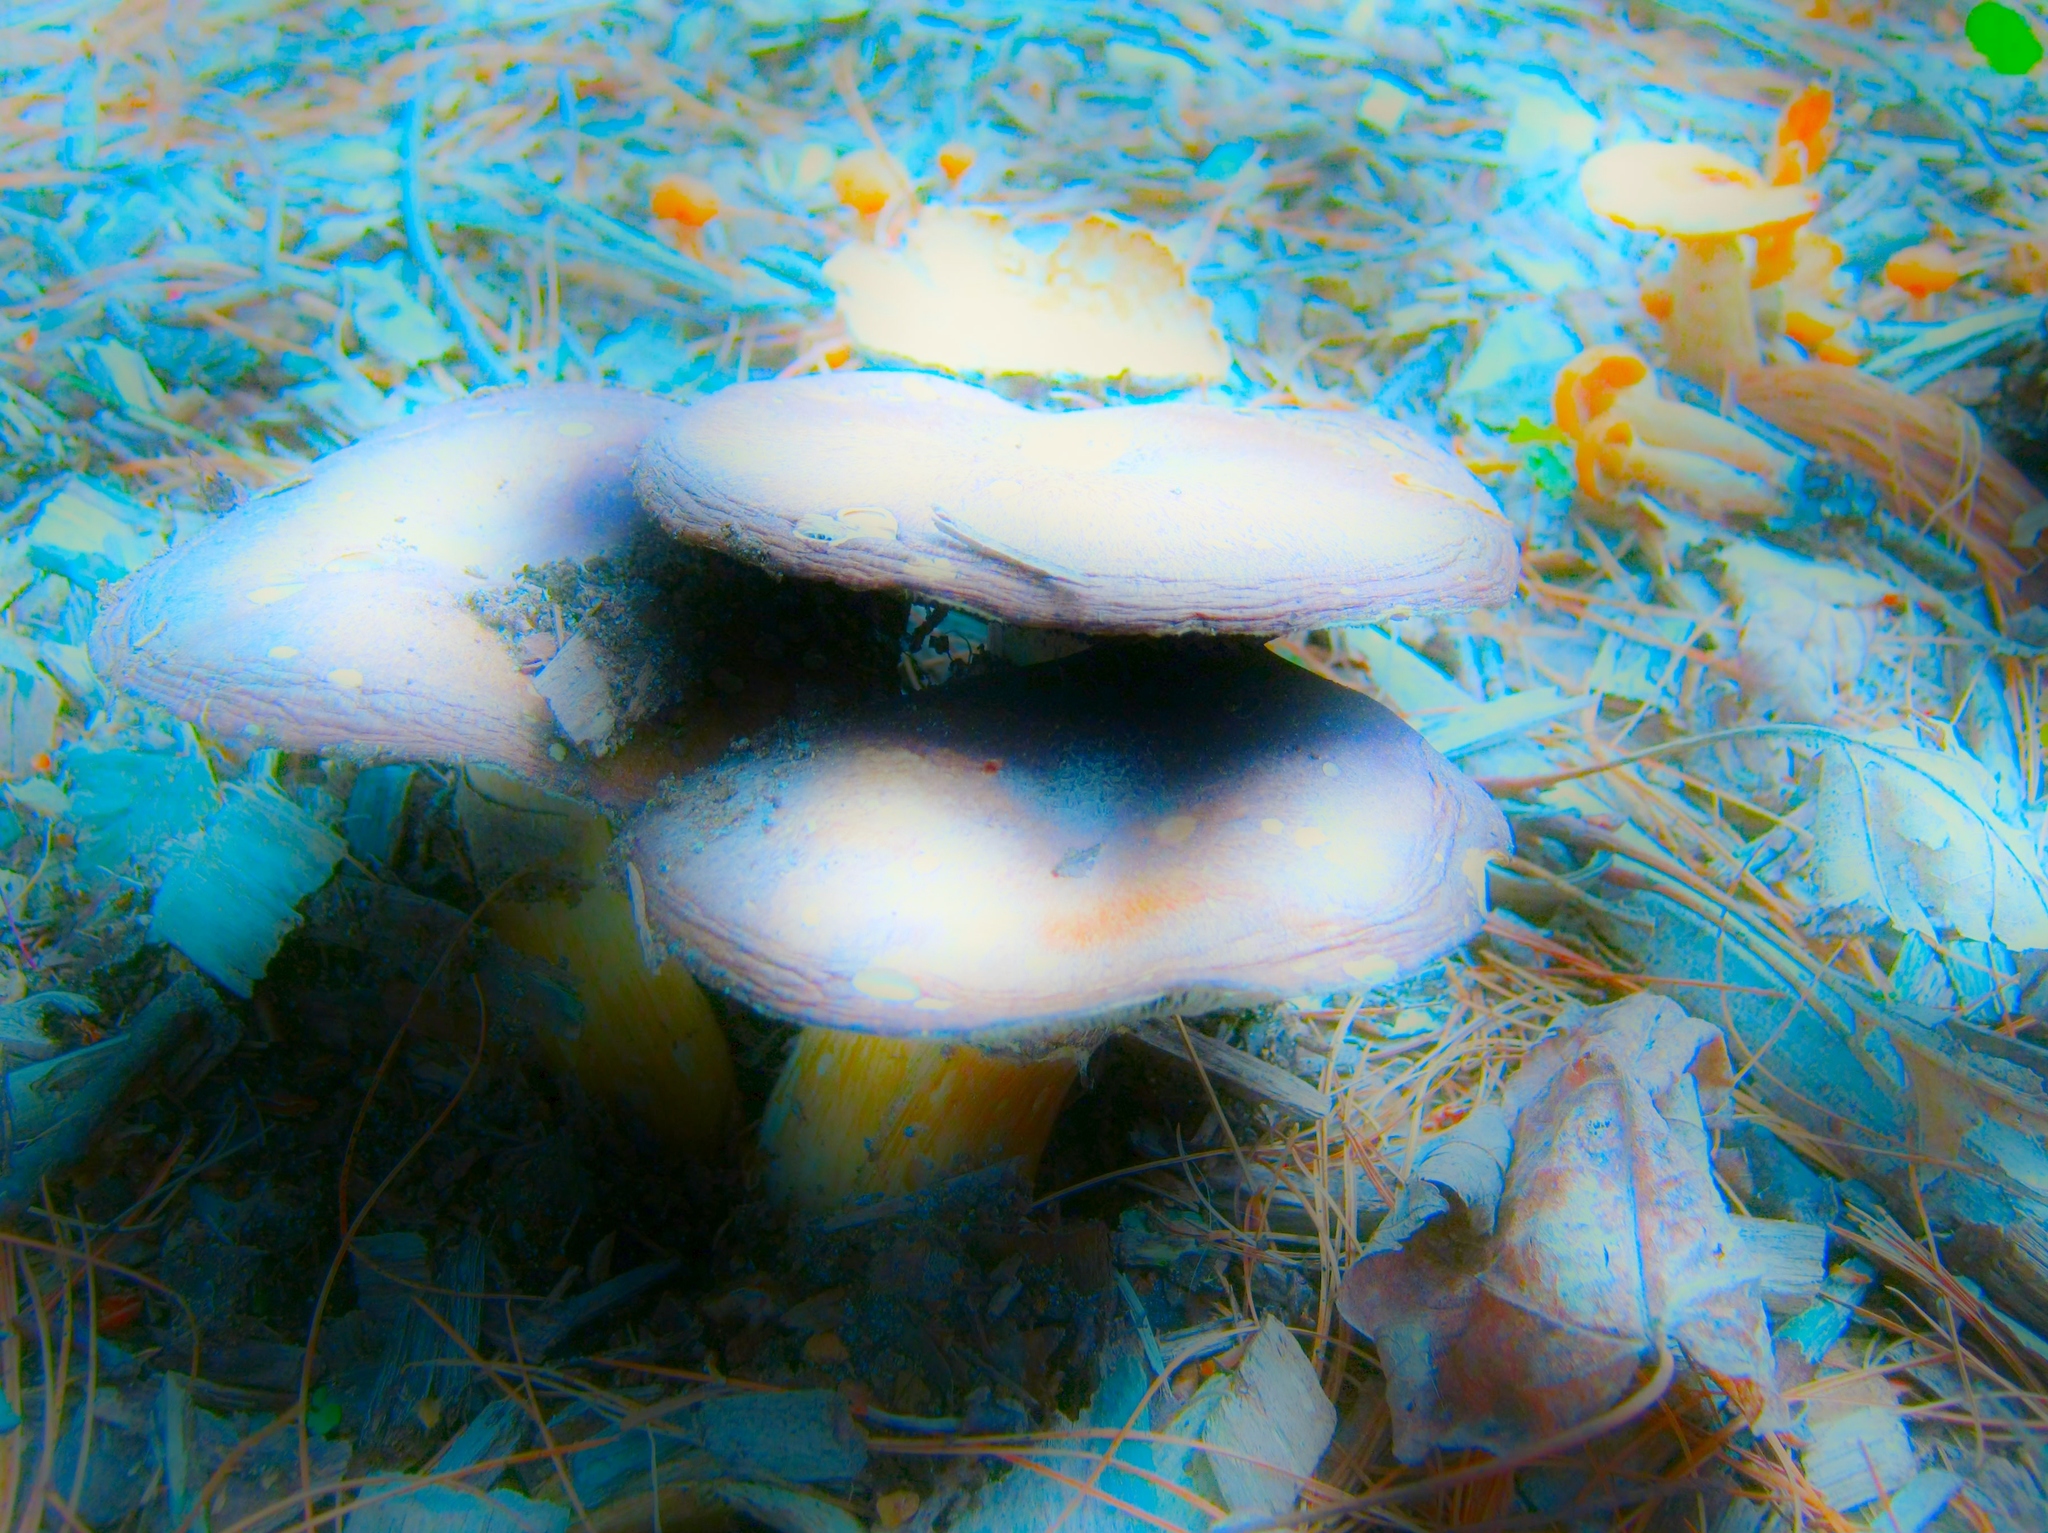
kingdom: Fungi
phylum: Basidiomycota
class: Agaricomycetes
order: Agaricales
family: Strophariaceae
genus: Stropharia
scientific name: Stropharia rugosoannulata
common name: Wine roundhead
